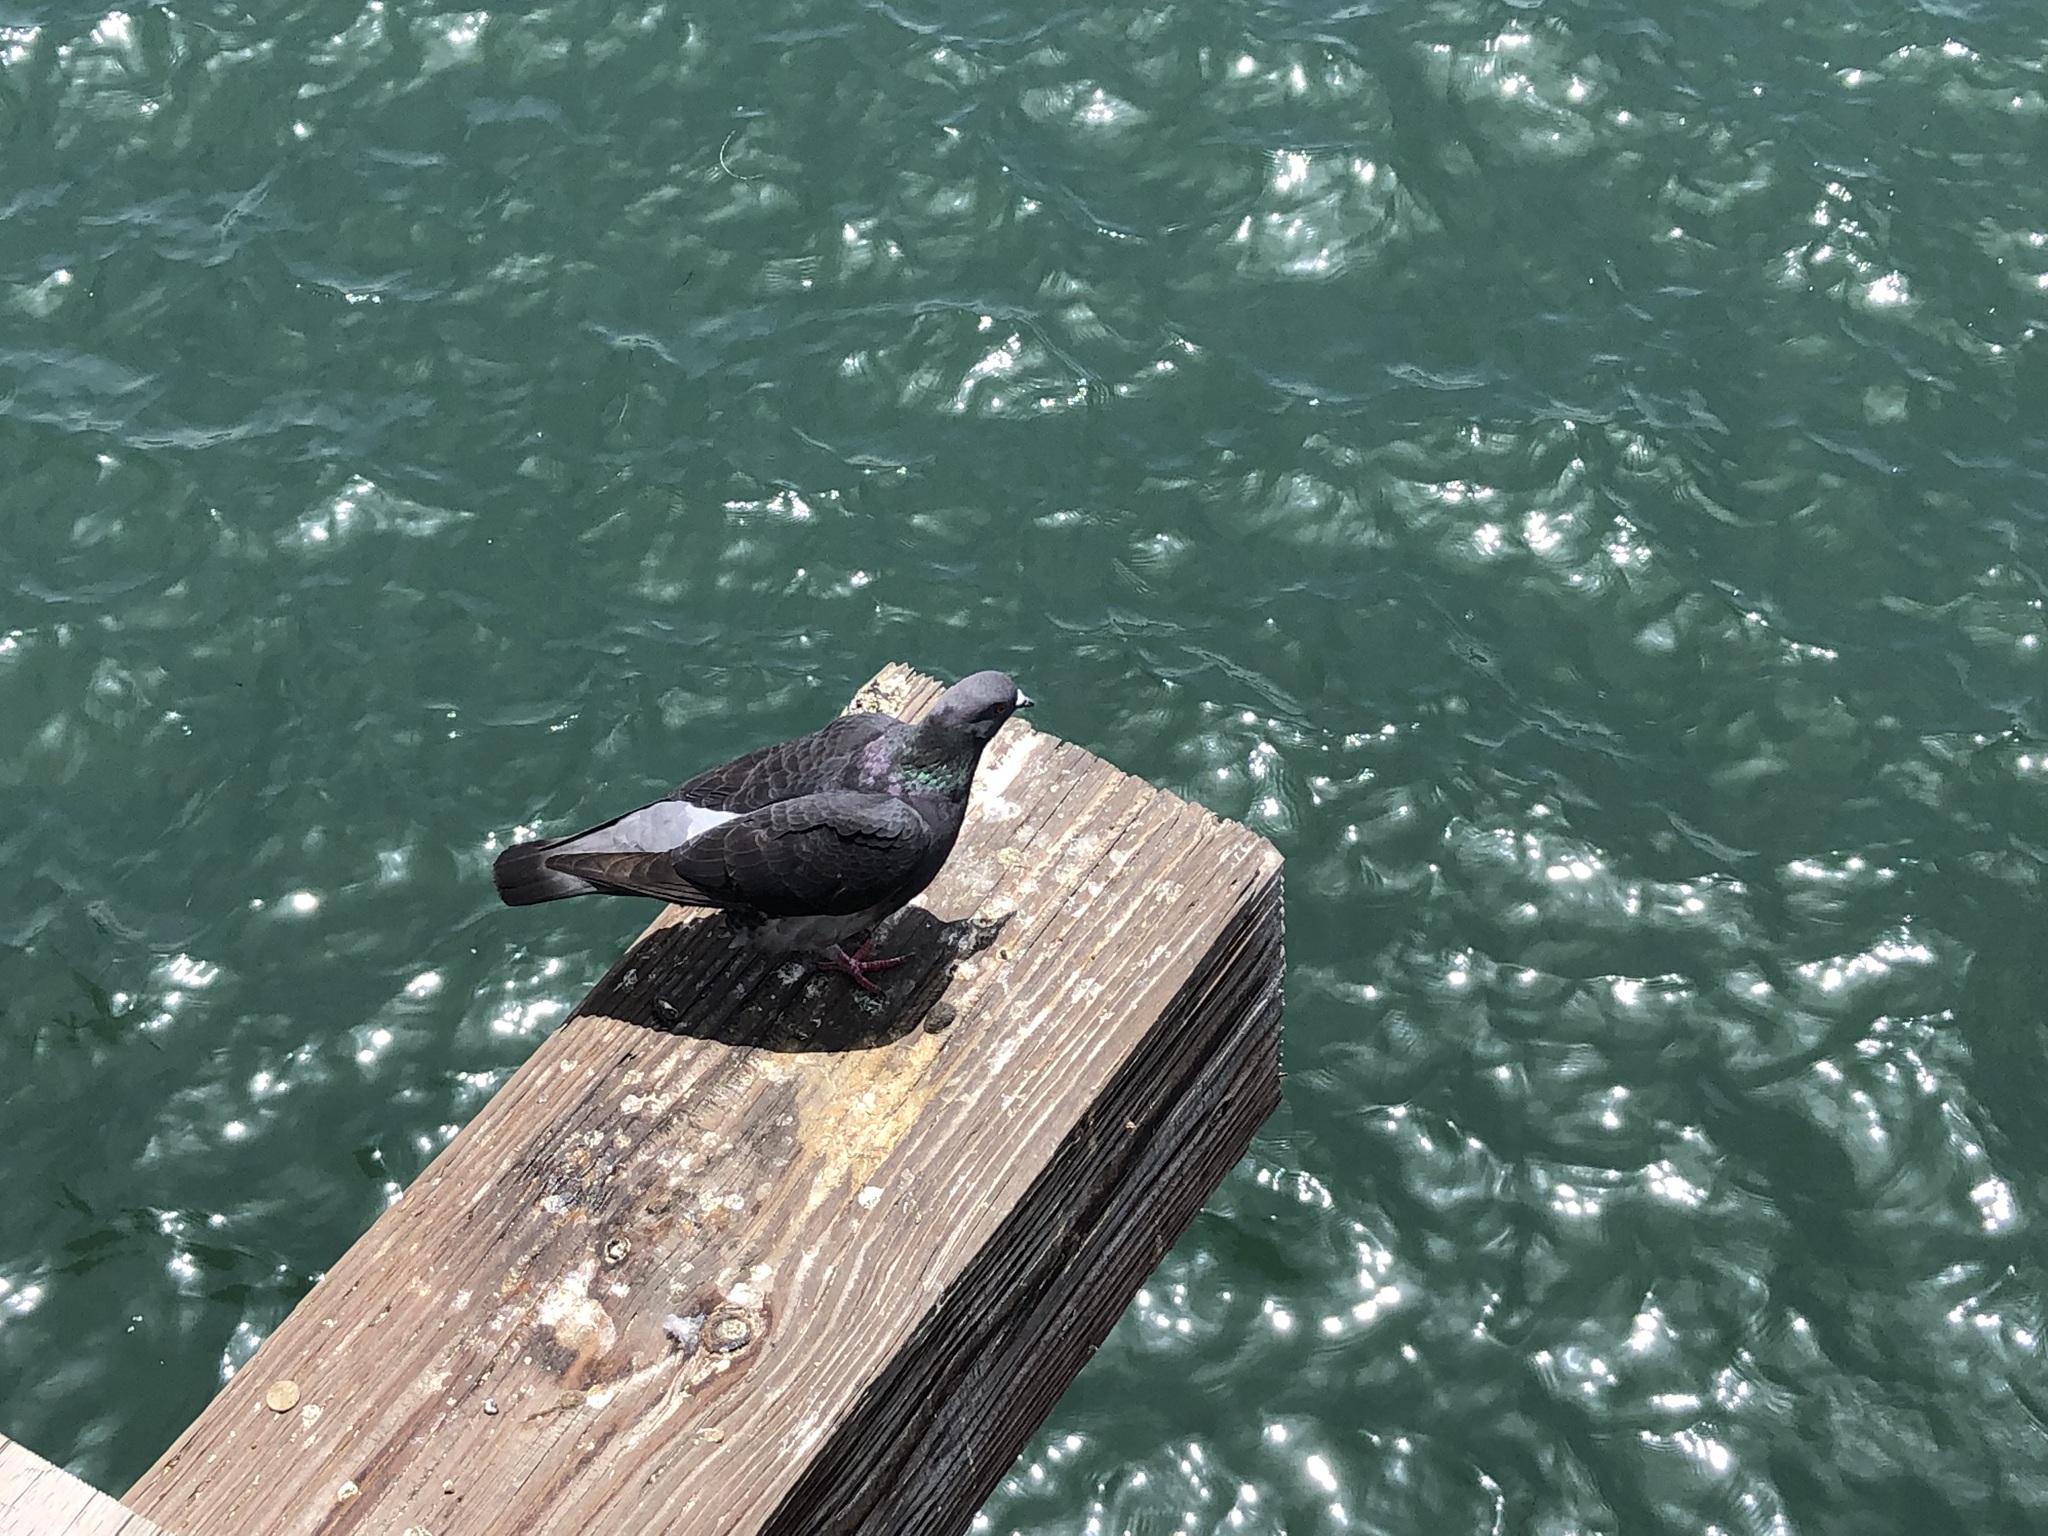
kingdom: Animalia
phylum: Chordata
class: Aves
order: Columbiformes
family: Columbidae
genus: Columba
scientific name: Columba livia
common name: Rock pigeon
